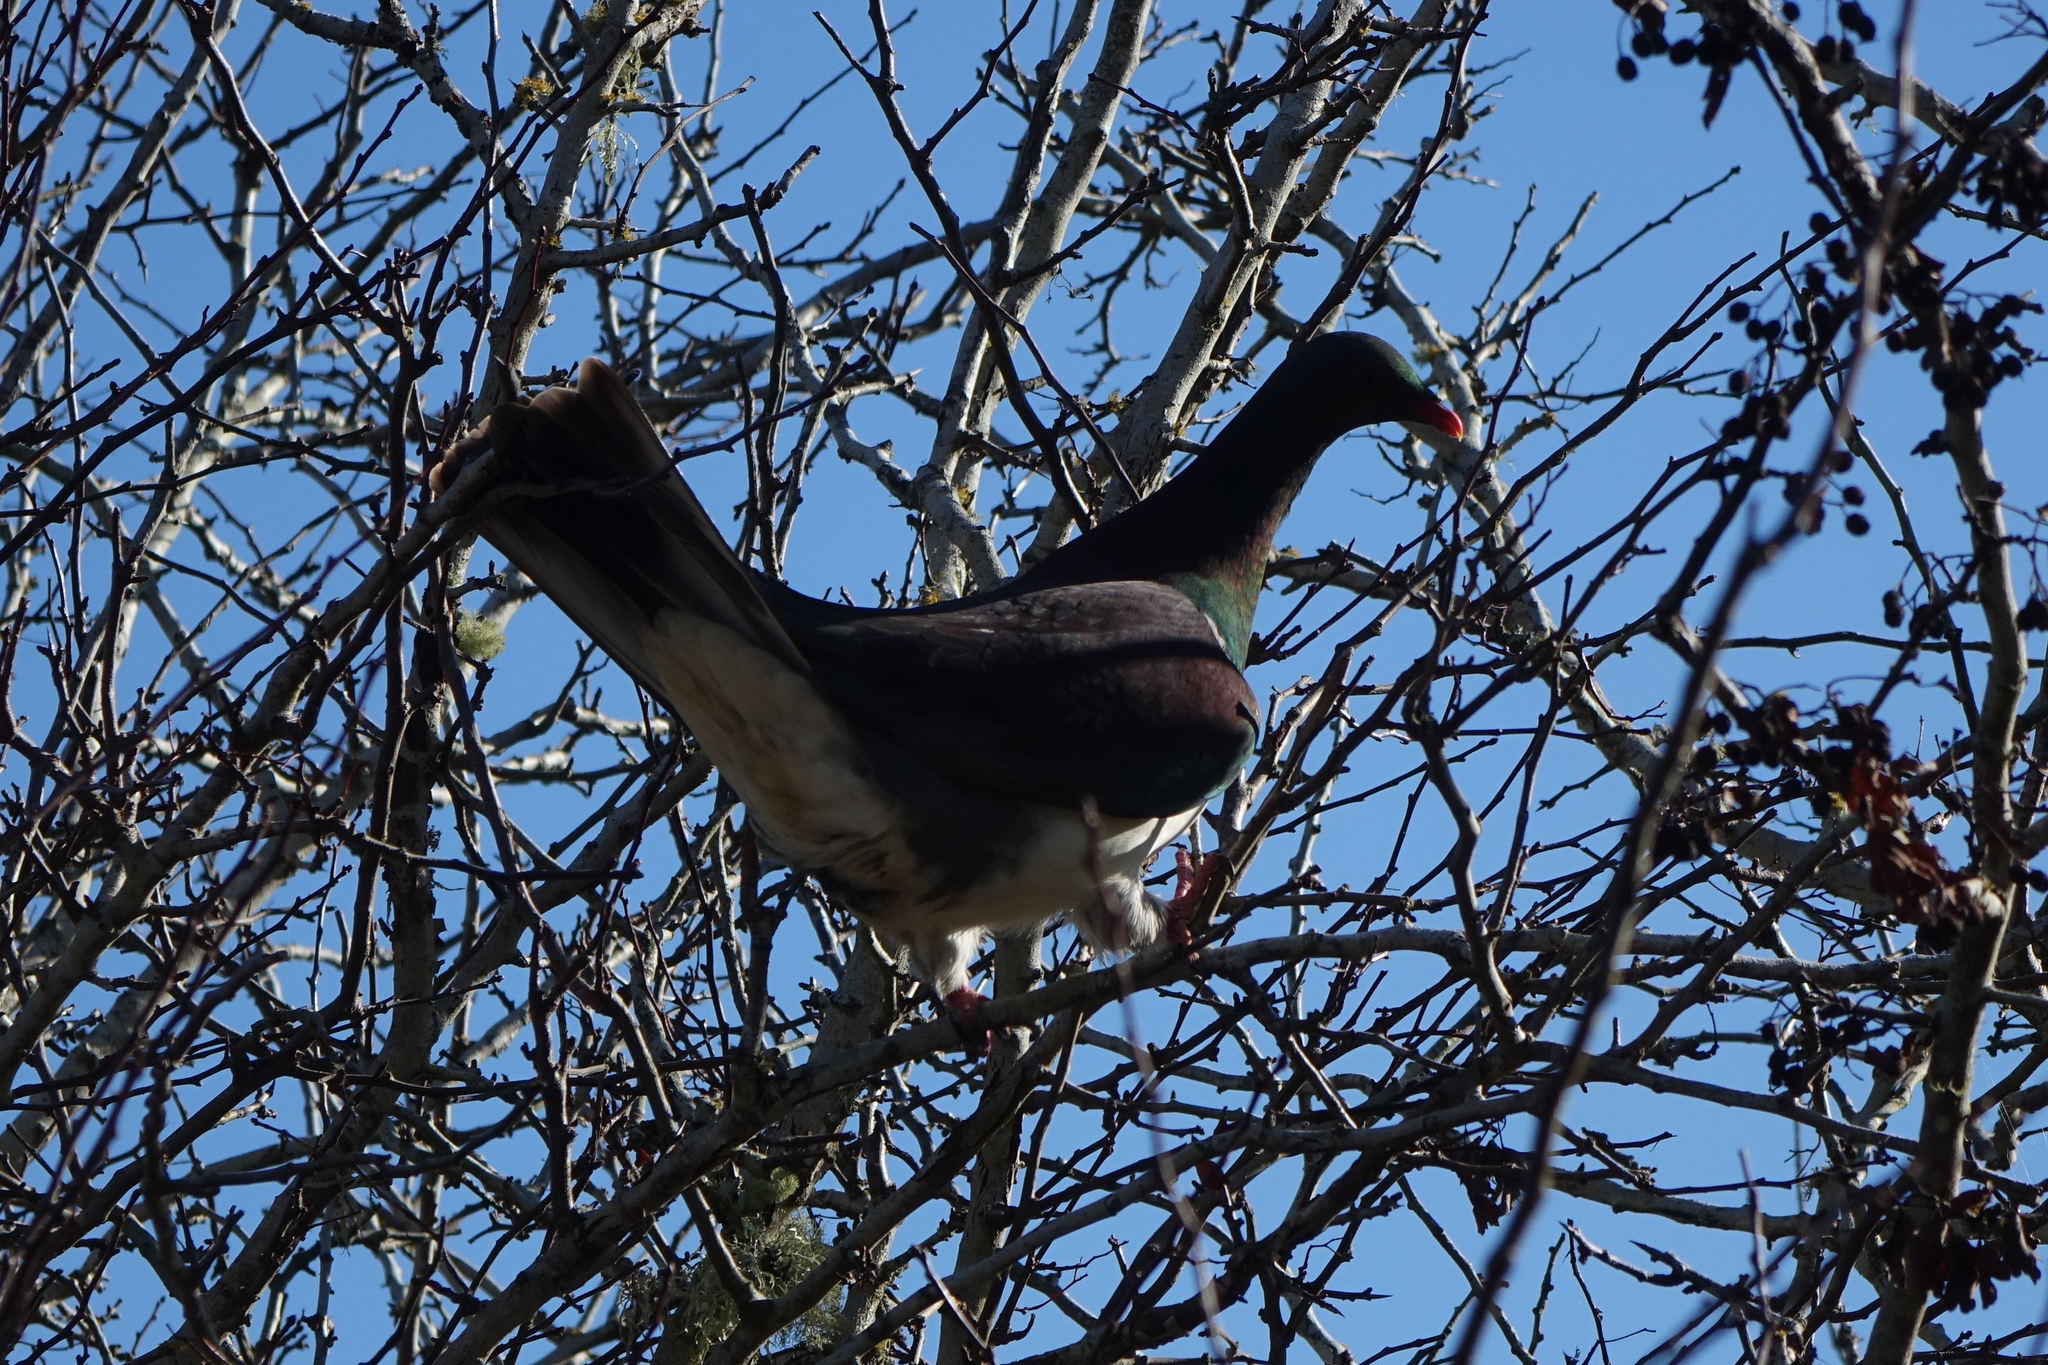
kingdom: Animalia
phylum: Chordata
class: Aves
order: Columbiformes
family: Columbidae
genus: Hemiphaga
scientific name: Hemiphaga novaeseelandiae
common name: New zealand pigeon
